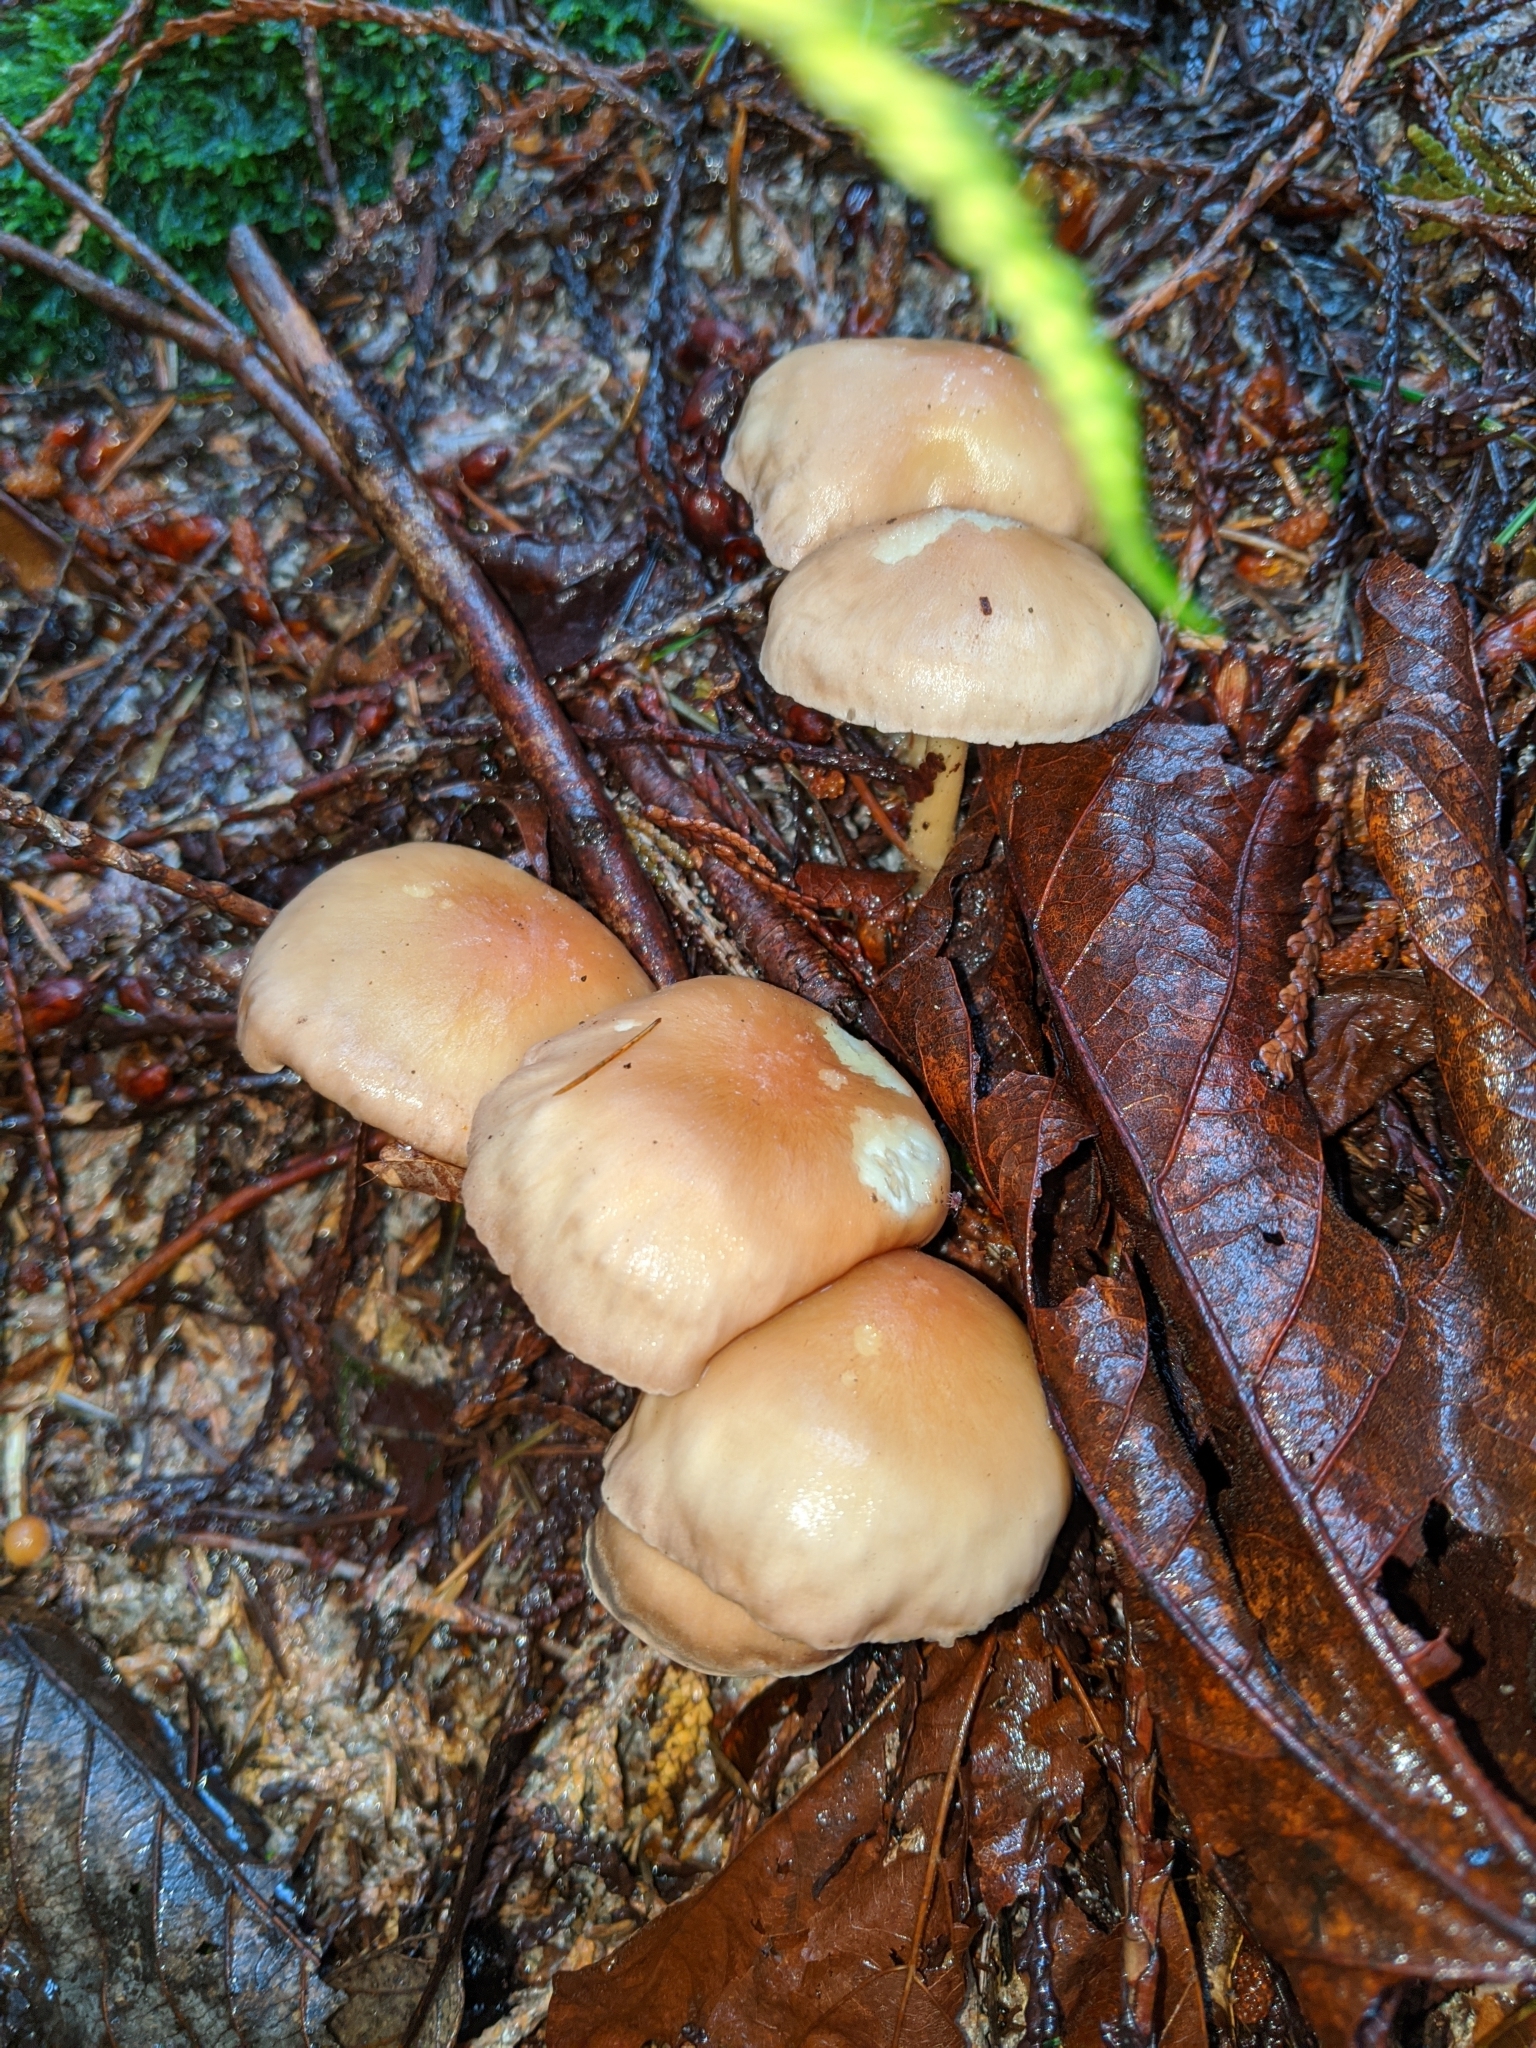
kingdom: Fungi
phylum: Basidiomycota
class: Agaricomycetes
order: Agaricales
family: Omphalotaceae
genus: Collybiopsis
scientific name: Collybiopsis peronata
